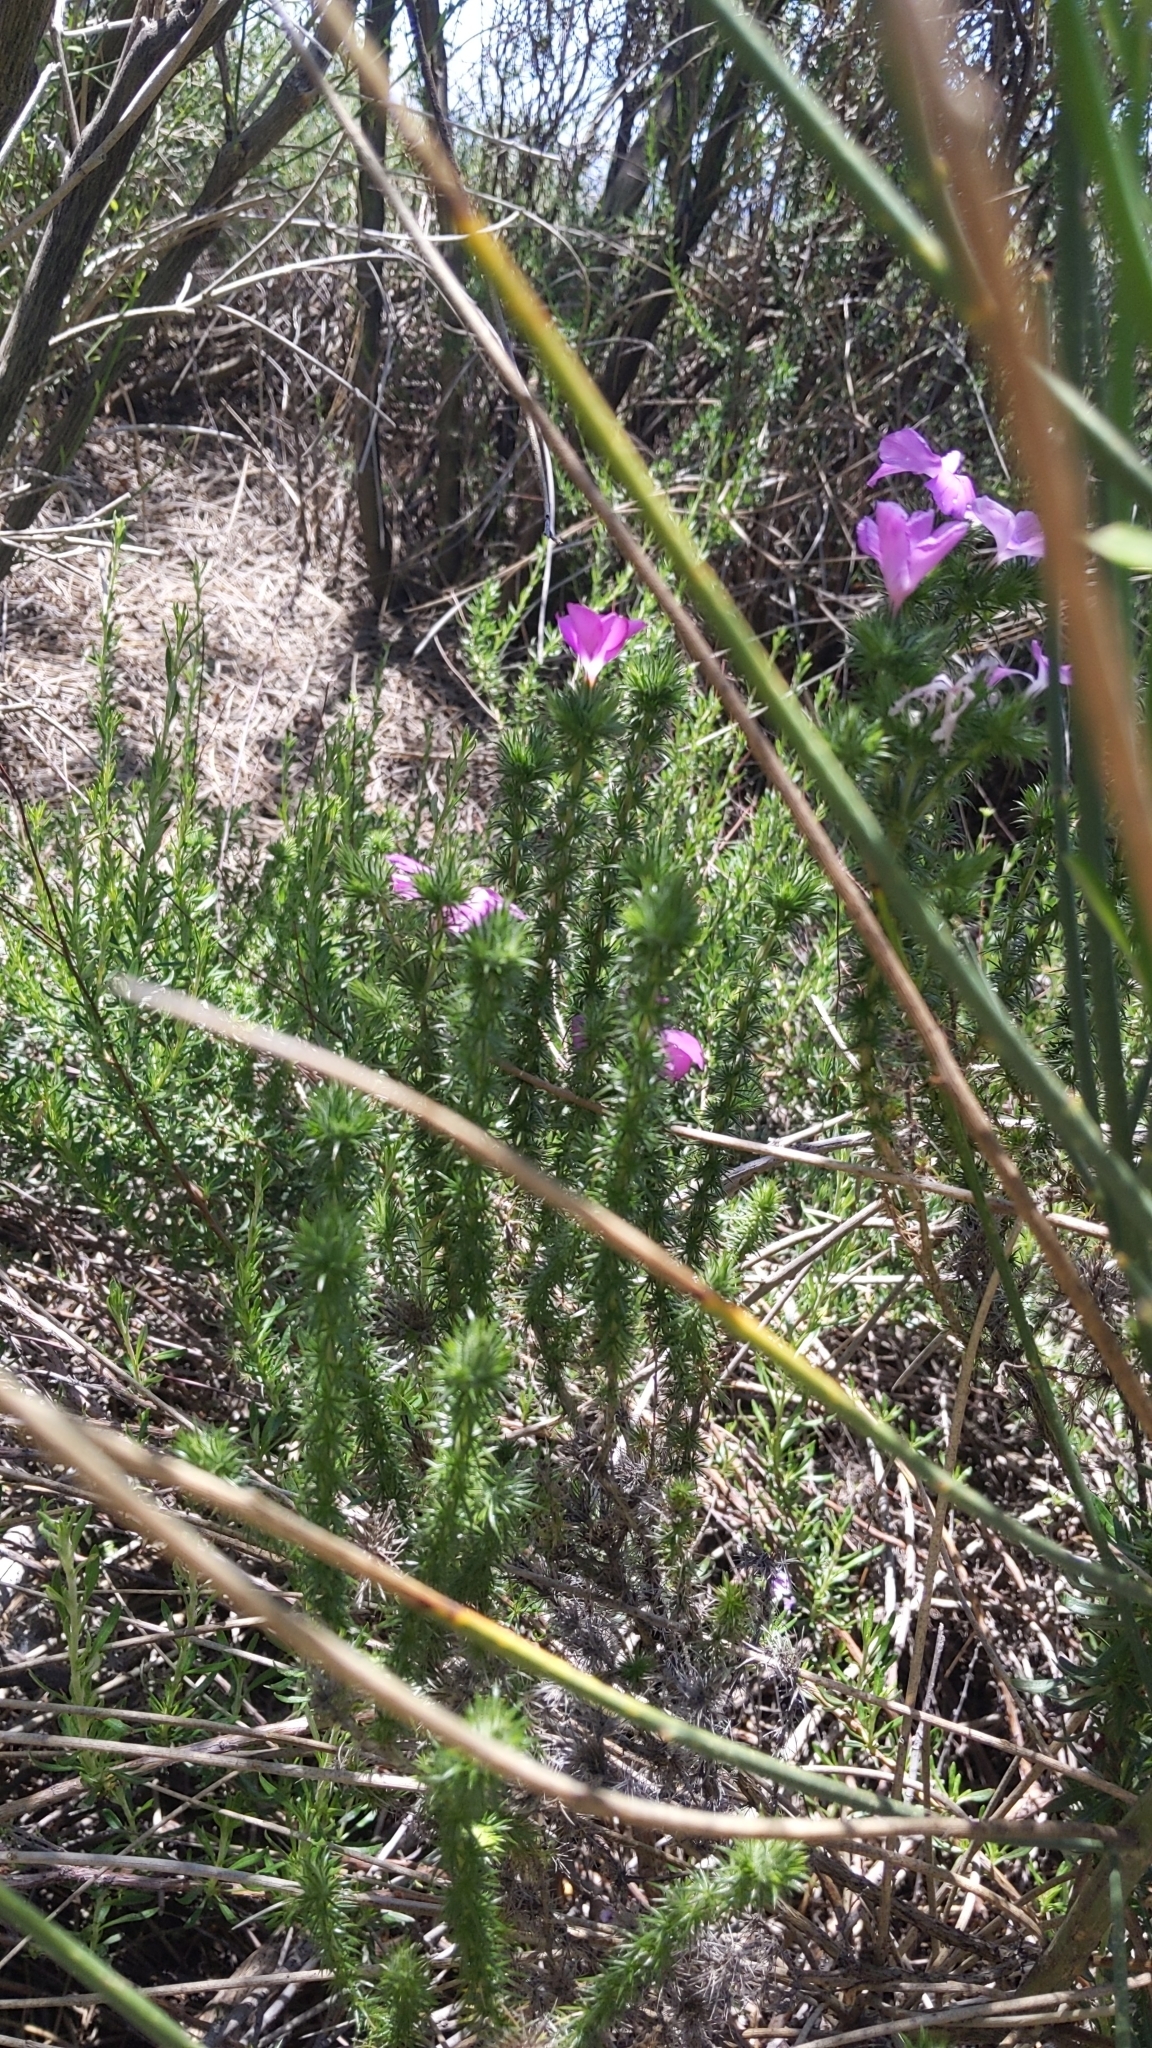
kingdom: Plantae
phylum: Tracheophyta
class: Magnoliopsida
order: Ericales
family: Polemoniaceae
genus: Linanthus
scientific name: Linanthus californicus
